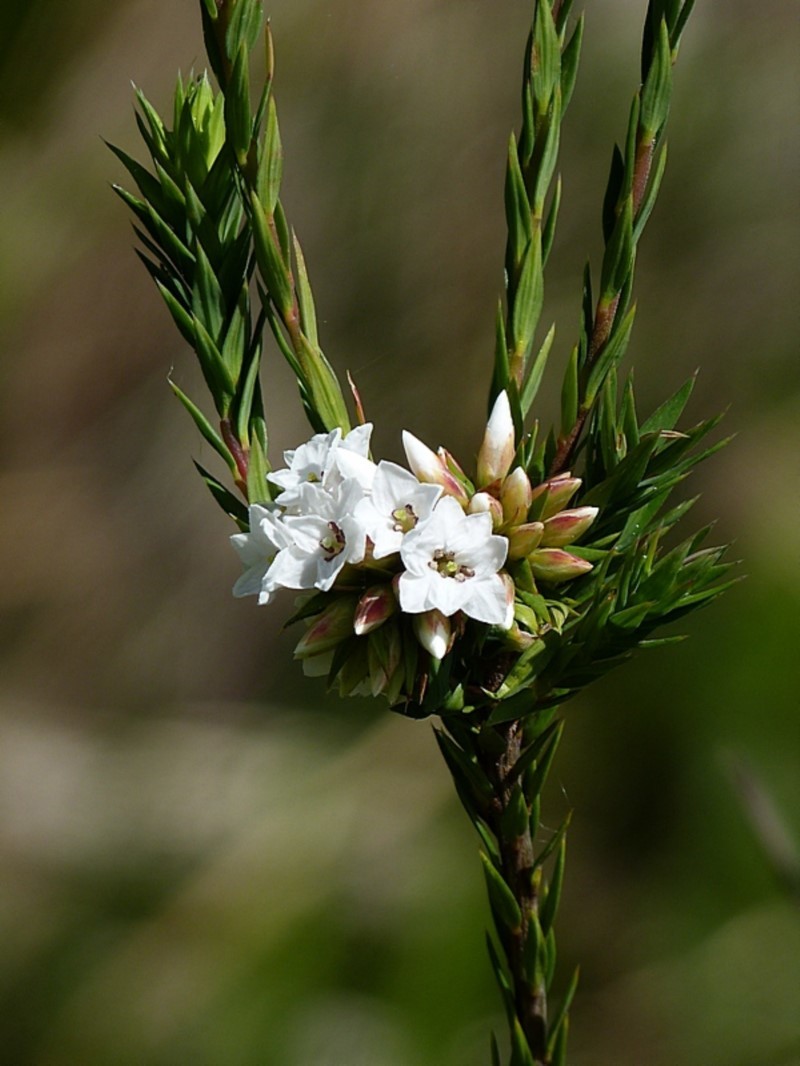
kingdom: Plantae
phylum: Tracheophyta
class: Magnoliopsida
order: Ericales
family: Ericaceae
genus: Epacris
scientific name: Epacris paludosa
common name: Swamp-heath
